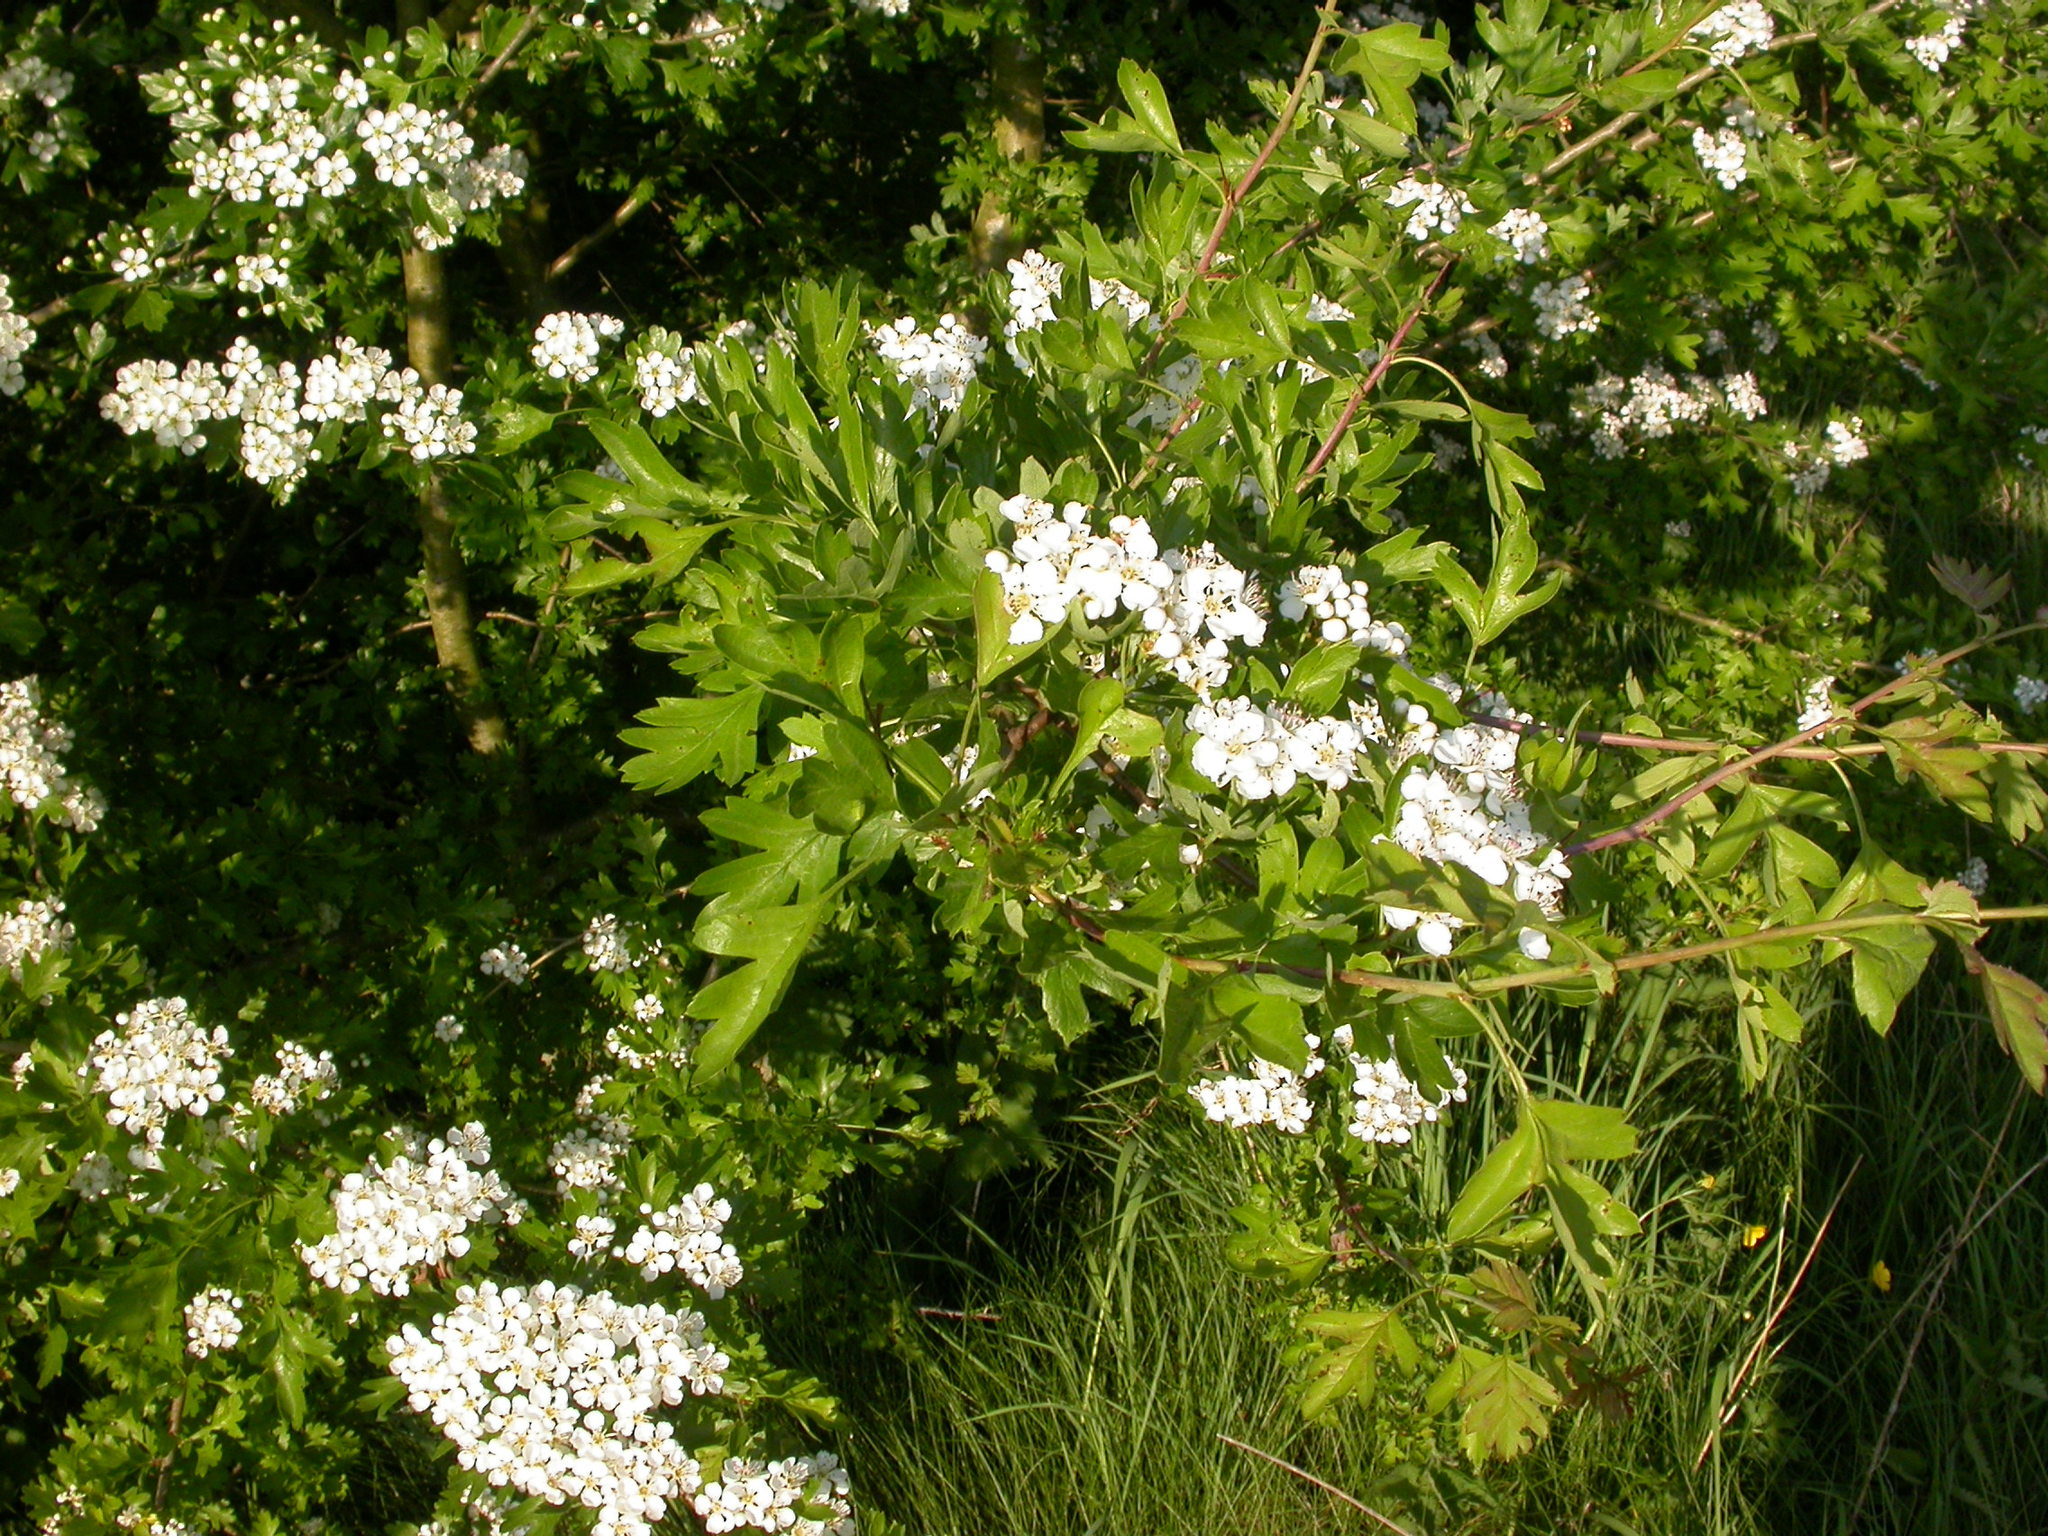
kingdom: Plantae
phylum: Tracheophyta
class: Magnoliopsida
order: Rosales
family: Rosaceae
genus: Crataegus
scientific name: Crataegus monogyna
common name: Hawthorn
